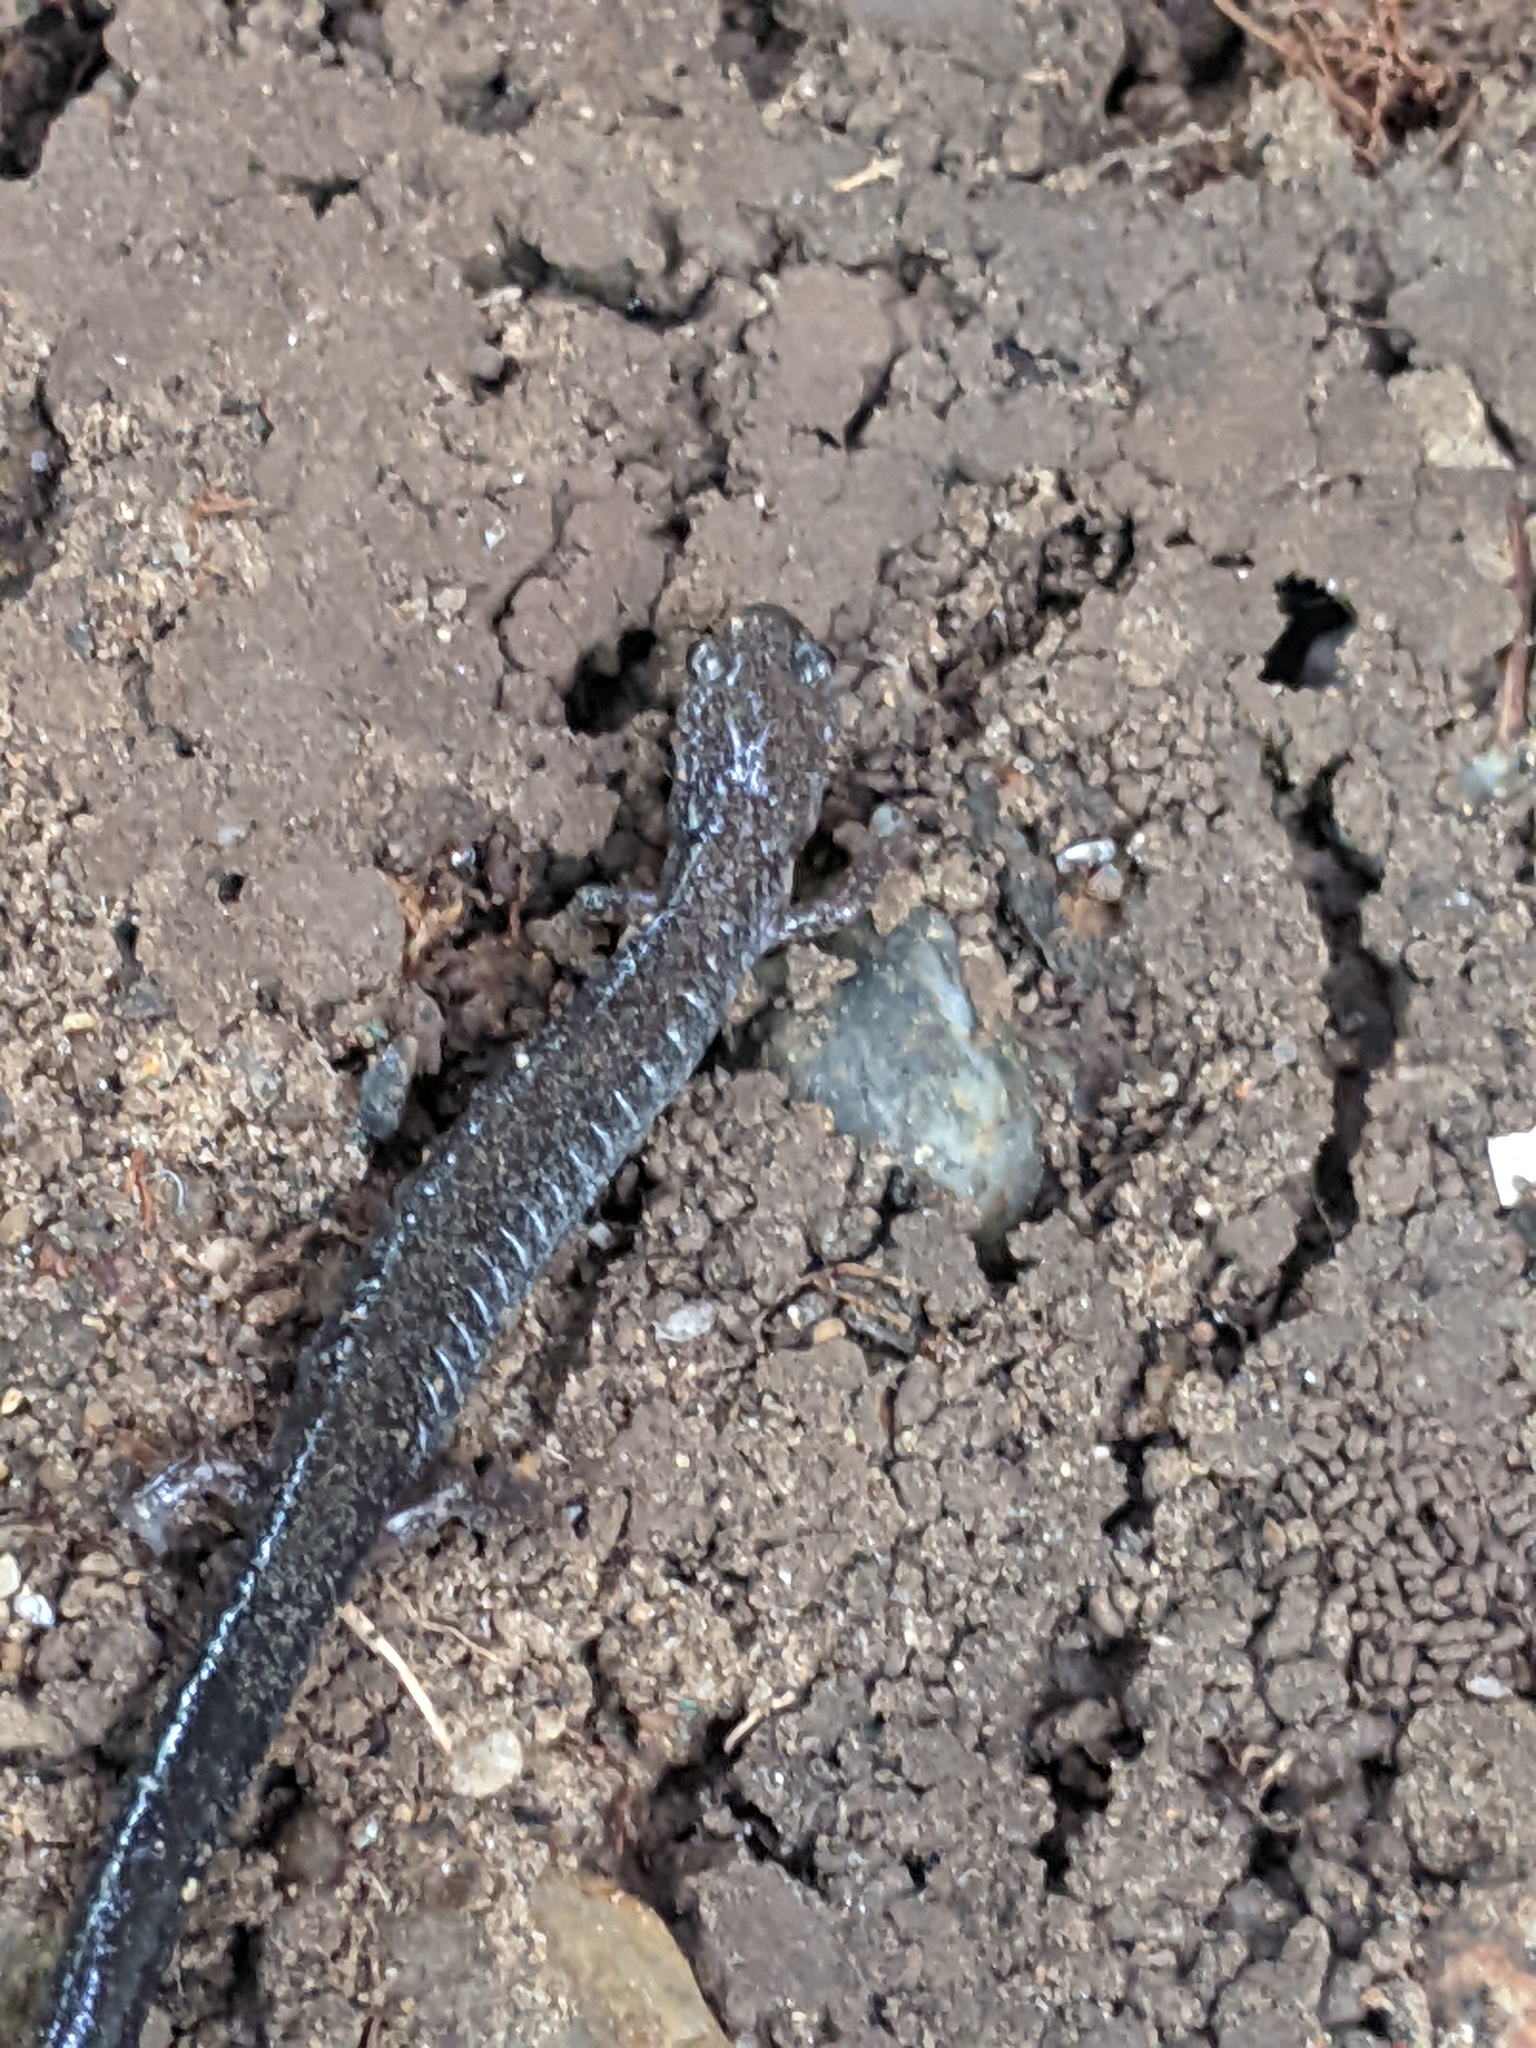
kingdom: Animalia
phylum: Chordata
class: Amphibia
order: Caudata
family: Plethodontidae
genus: Plethodon
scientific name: Plethodon cinereus
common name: Redback salamander
